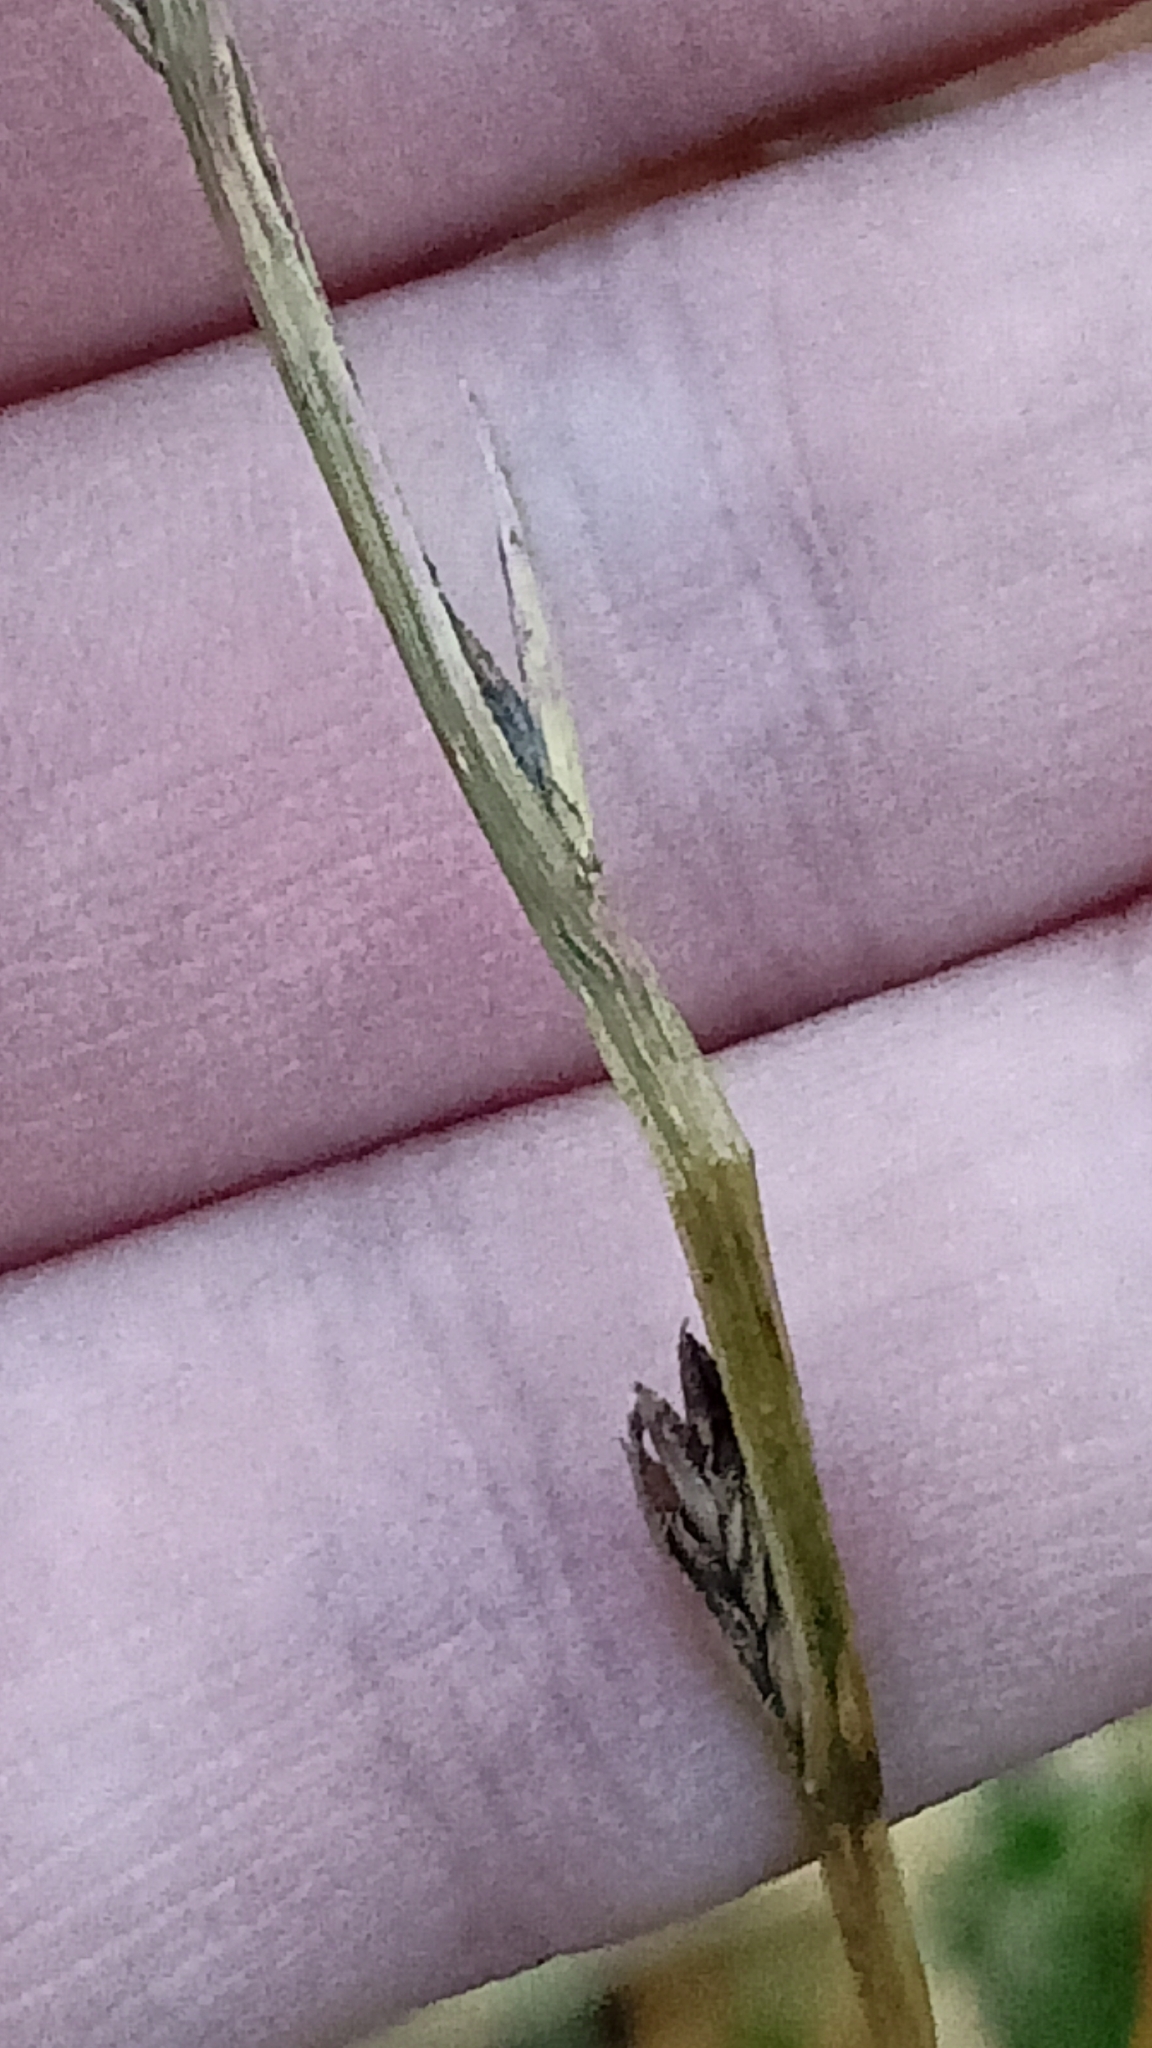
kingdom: Plantae
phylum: Tracheophyta
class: Liliopsida
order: Poales
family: Poaceae
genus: Lolium
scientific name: Lolium multiflorum
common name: Annual ryegrass
